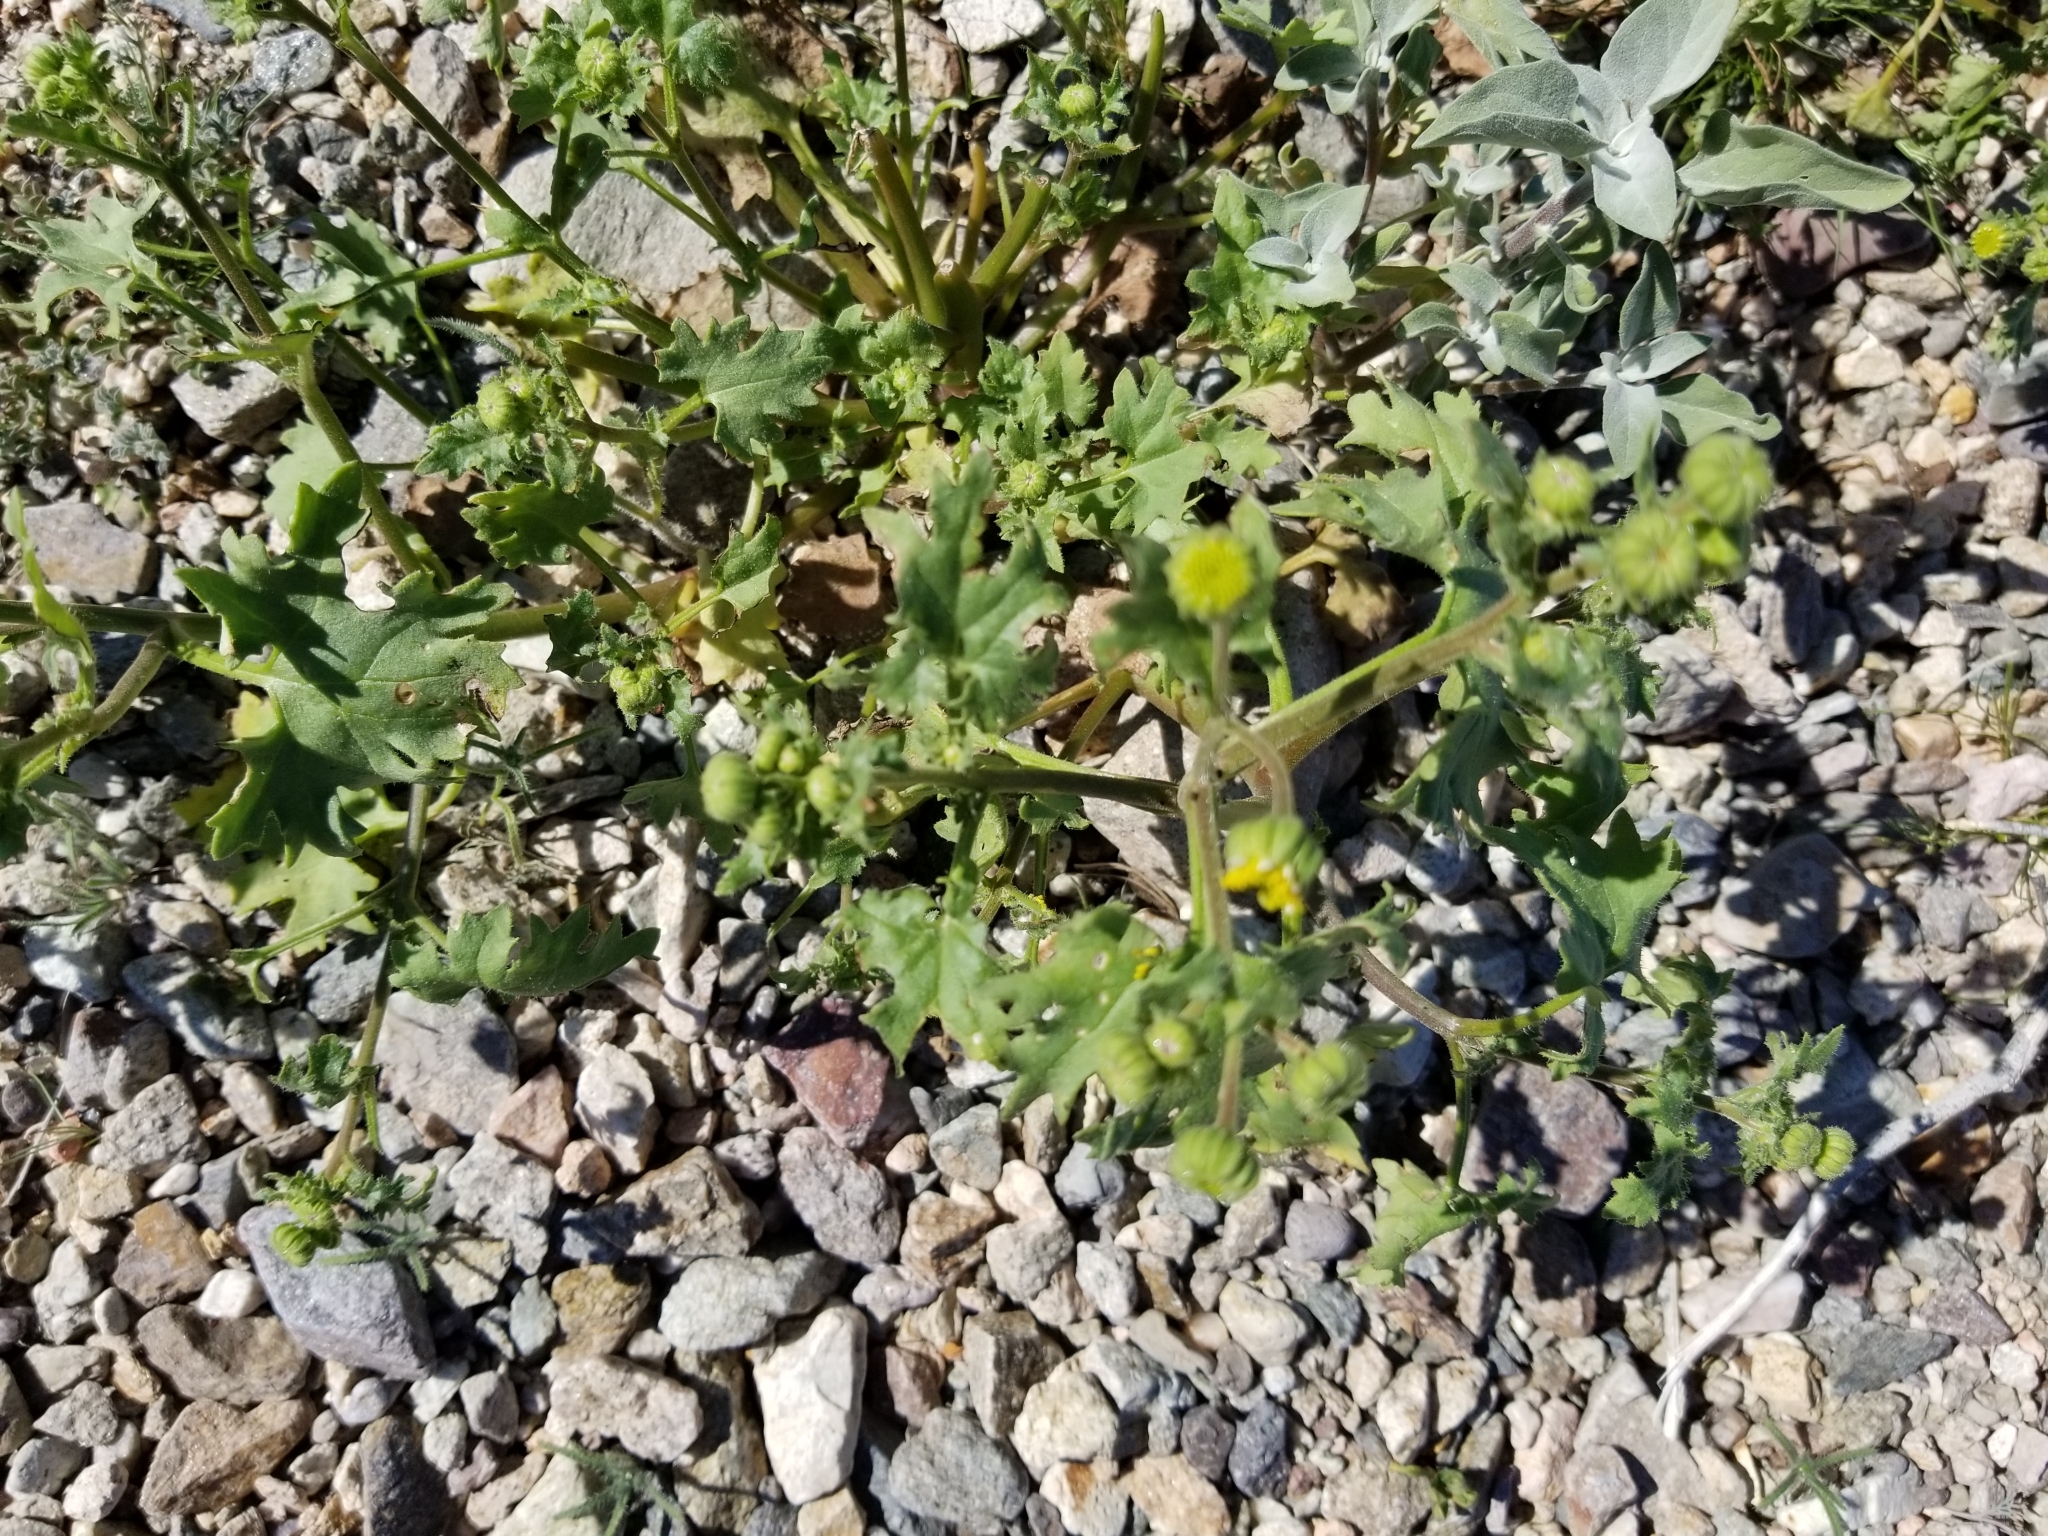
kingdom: Plantae
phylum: Tracheophyta
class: Magnoliopsida
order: Asterales
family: Asteraceae
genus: Laphamia
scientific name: Laphamia emoryi
